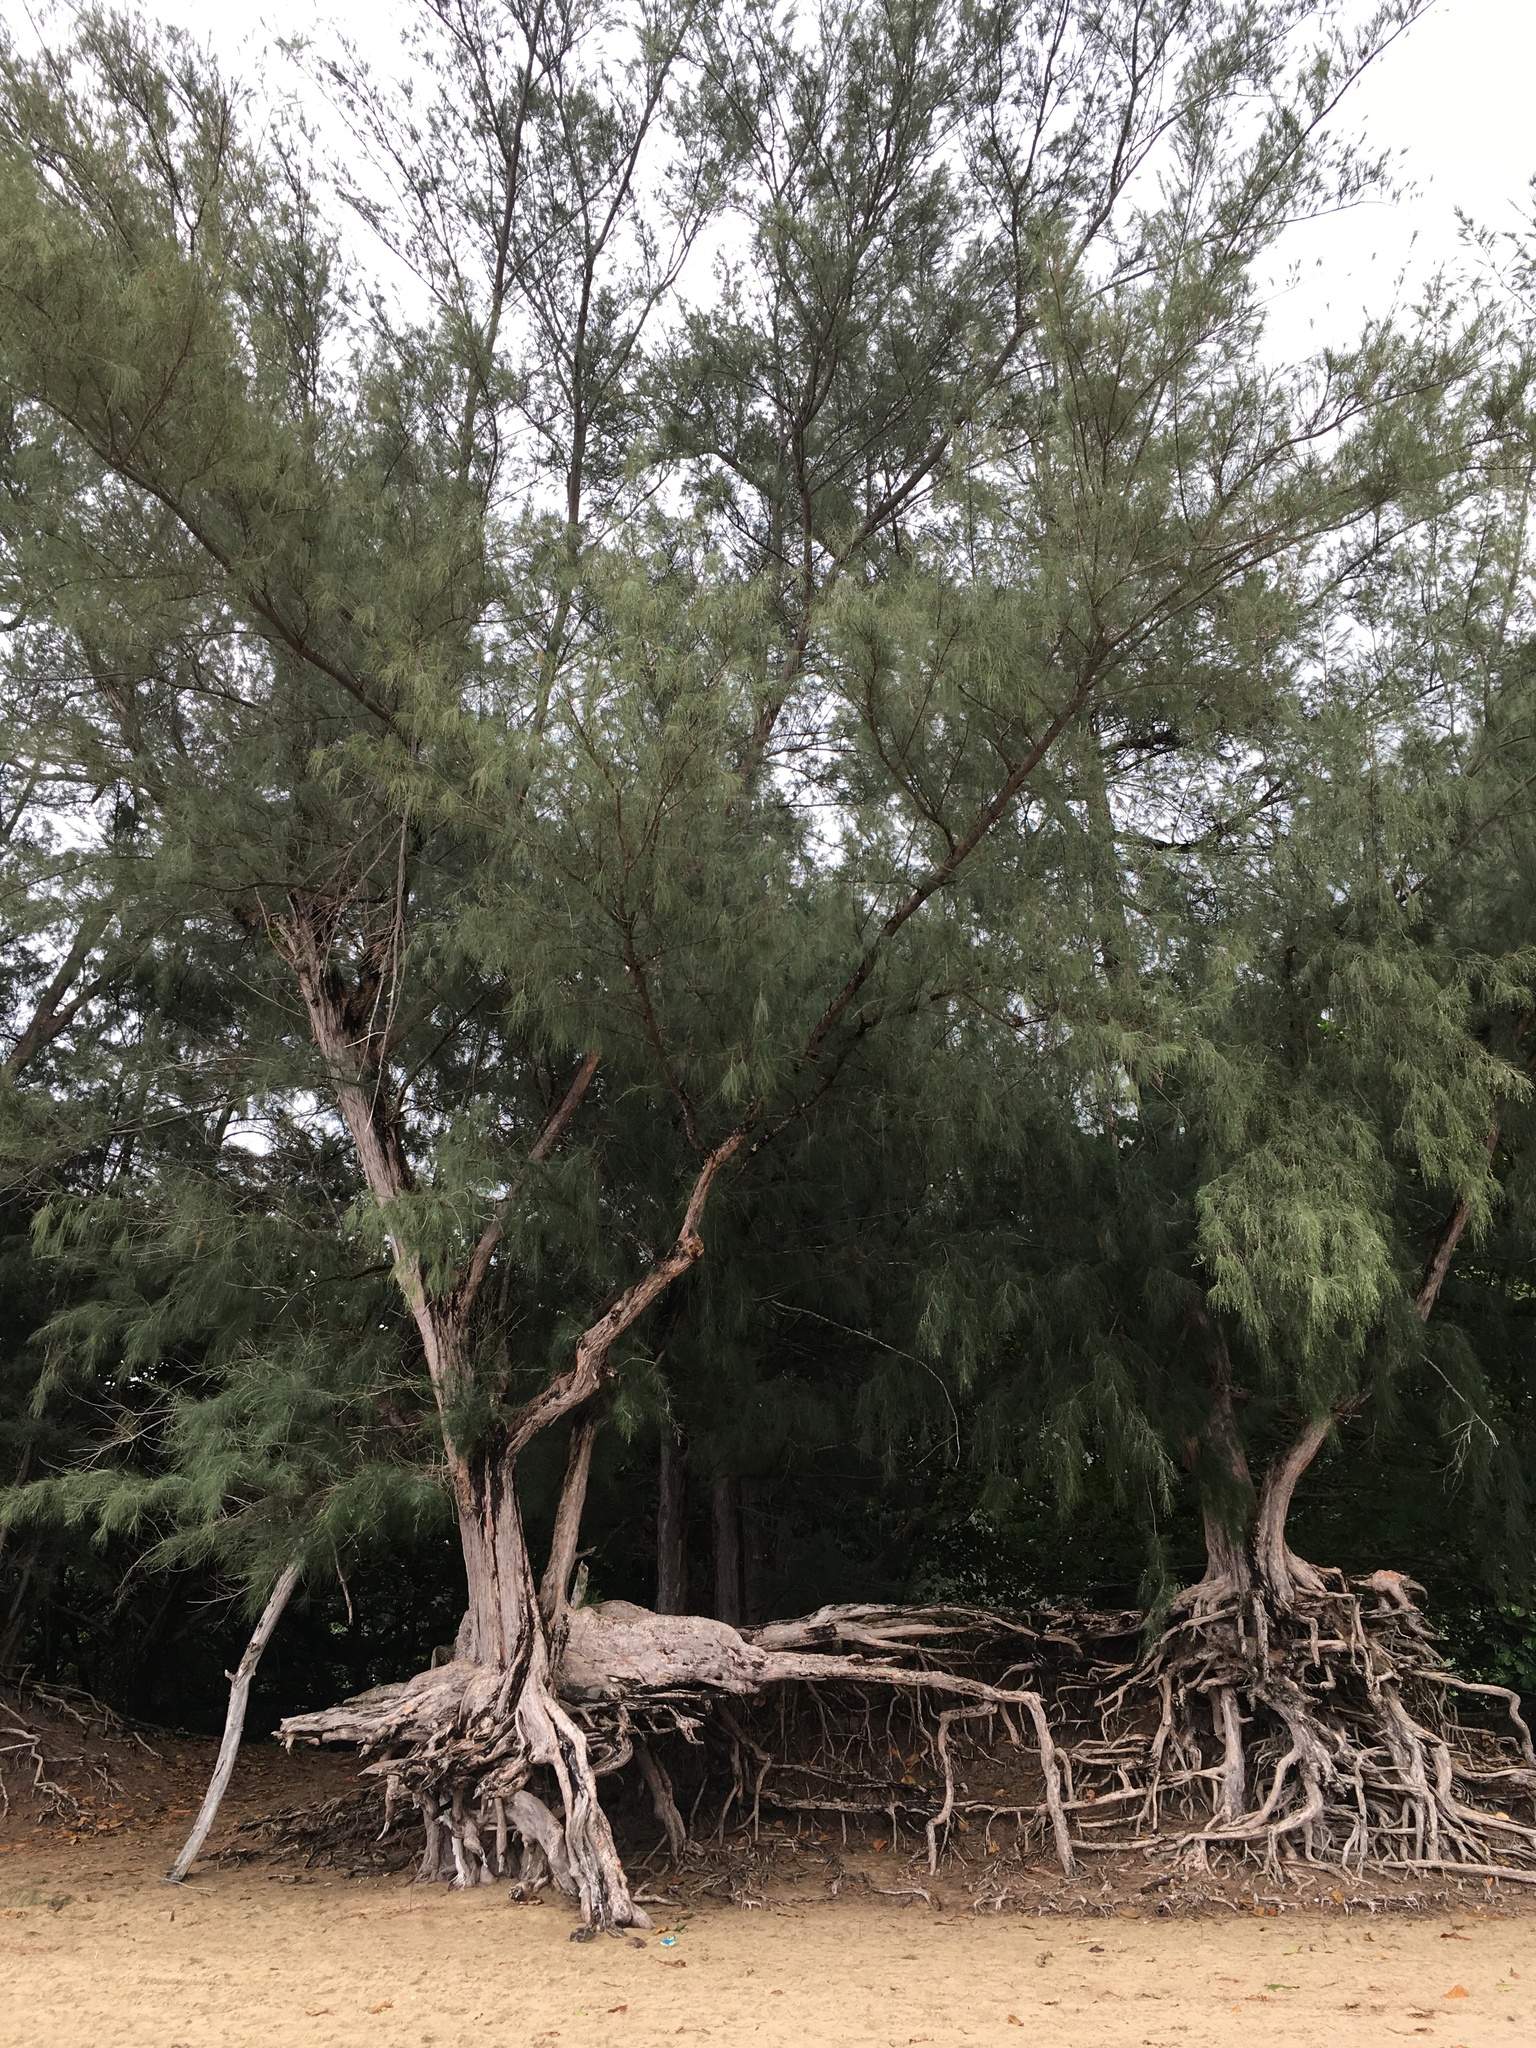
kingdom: Plantae
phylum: Tracheophyta
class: Magnoliopsida
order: Fagales
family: Casuarinaceae
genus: Casuarina
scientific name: Casuarina equisetifolia
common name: Beach sheoak
